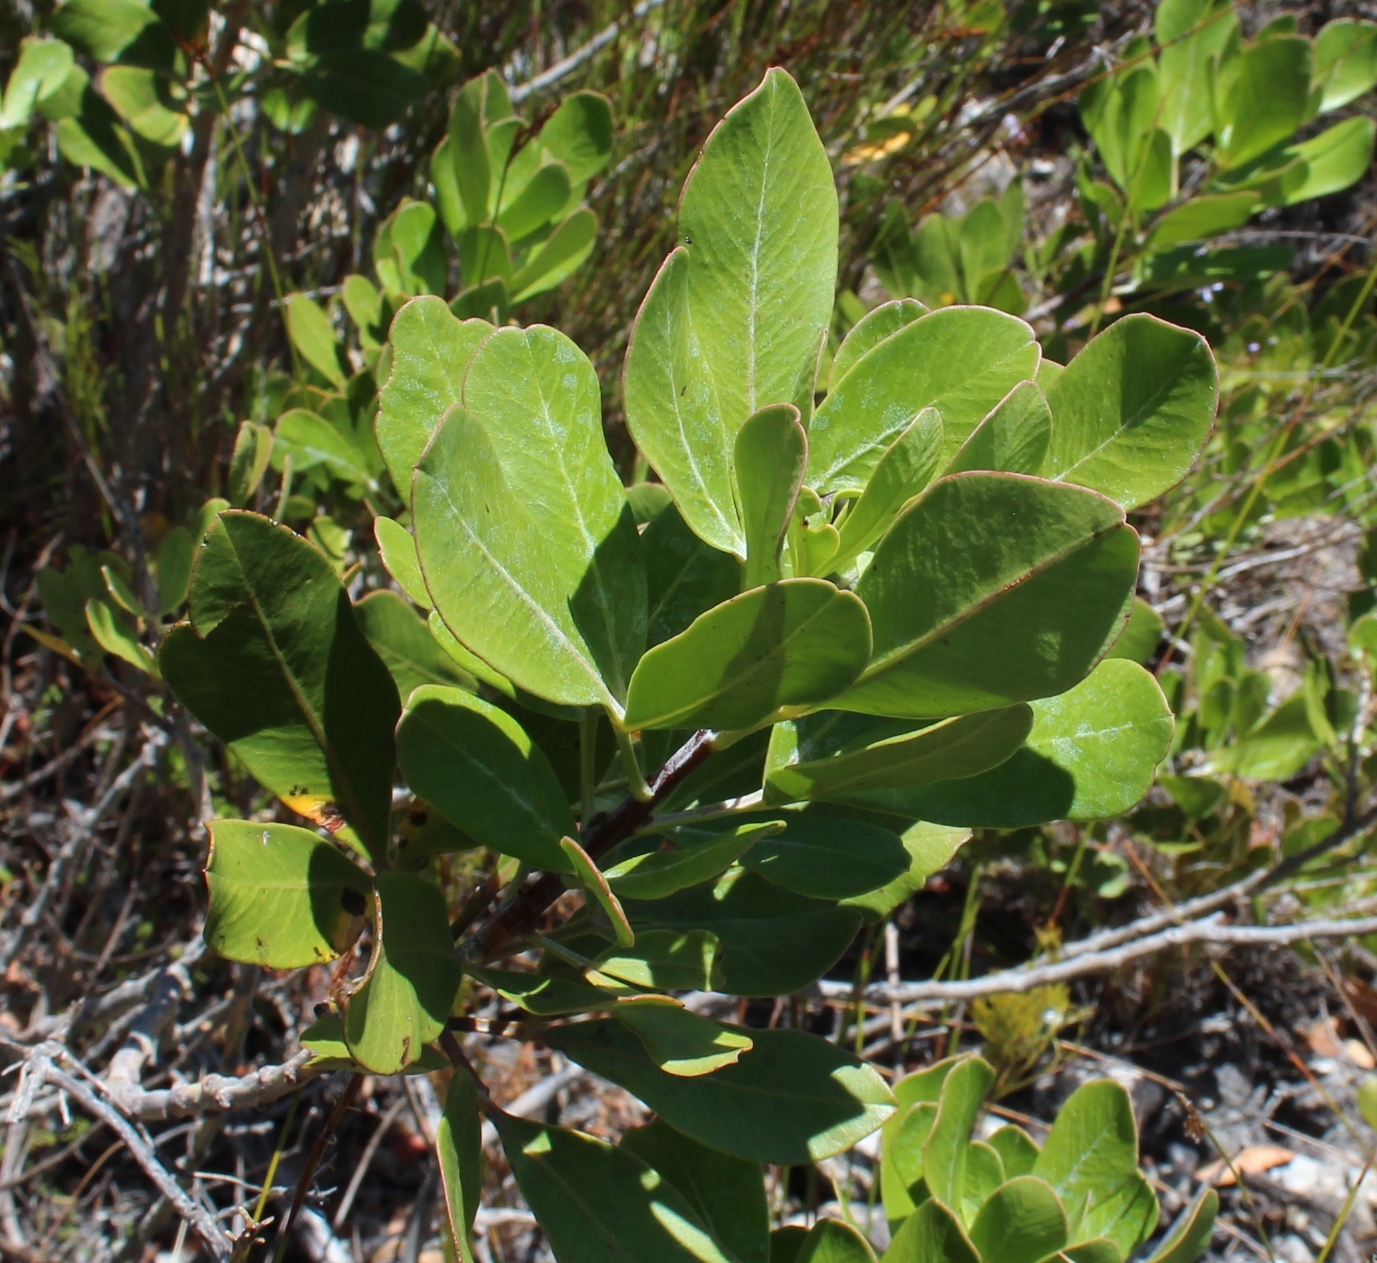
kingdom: Plantae
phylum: Tracheophyta
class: Magnoliopsida
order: Sapindales
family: Anacardiaceae
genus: Searsia
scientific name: Searsia scytophylla
